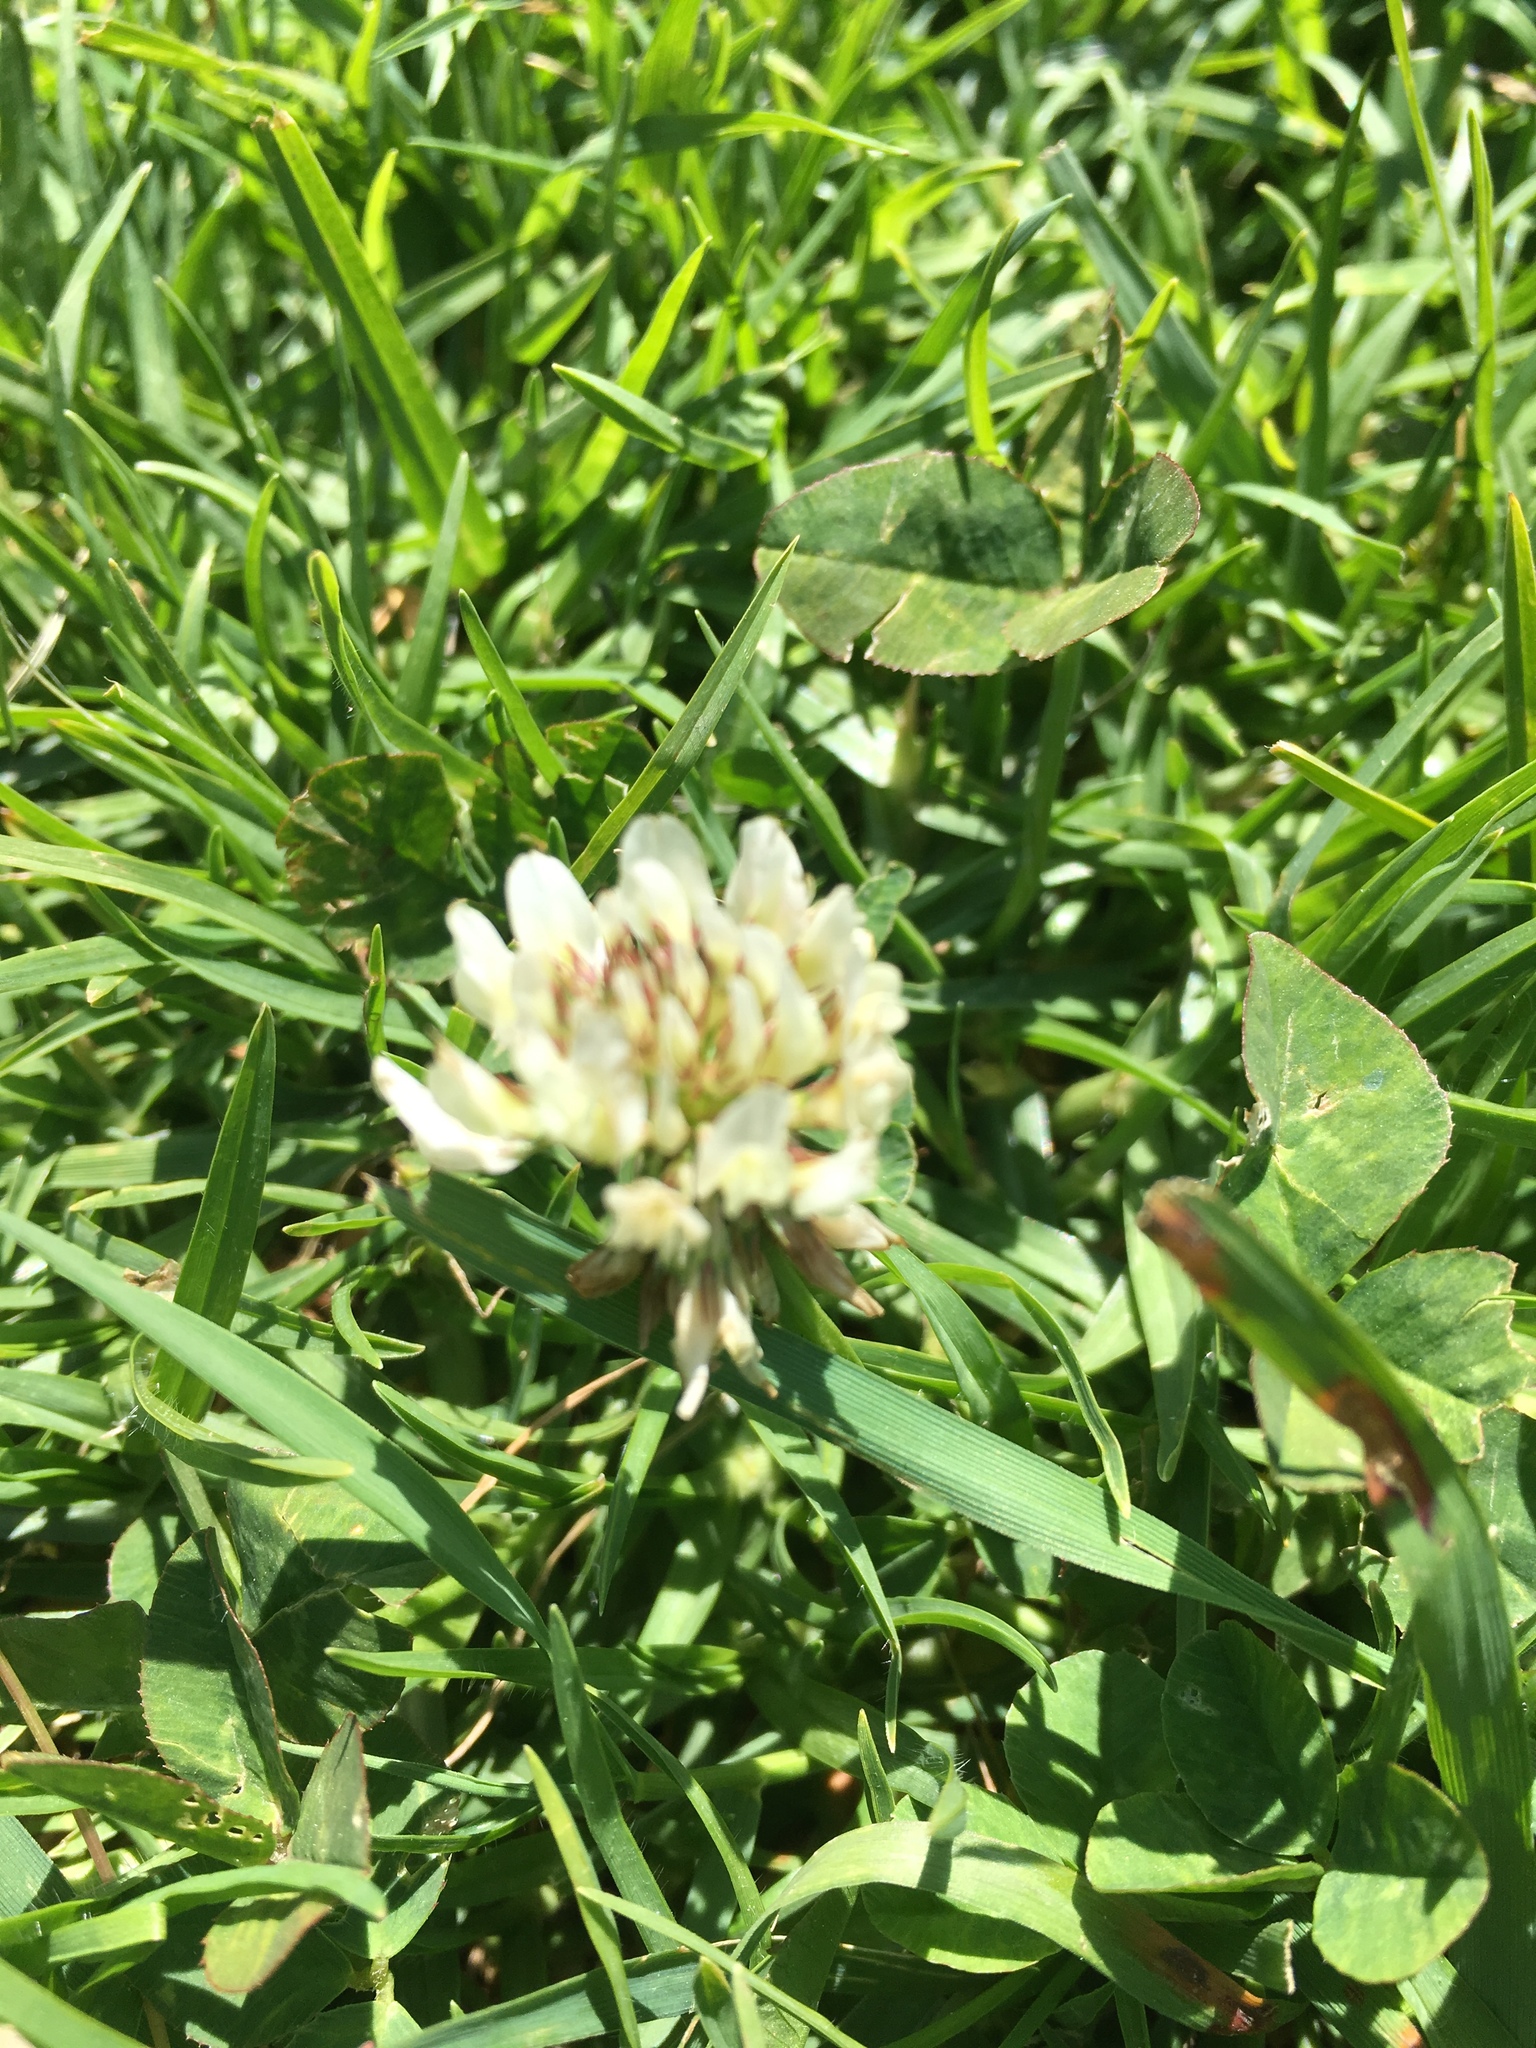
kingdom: Plantae
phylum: Tracheophyta
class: Magnoliopsida
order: Fabales
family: Fabaceae
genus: Trifolium
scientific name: Trifolium repens
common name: White clover
